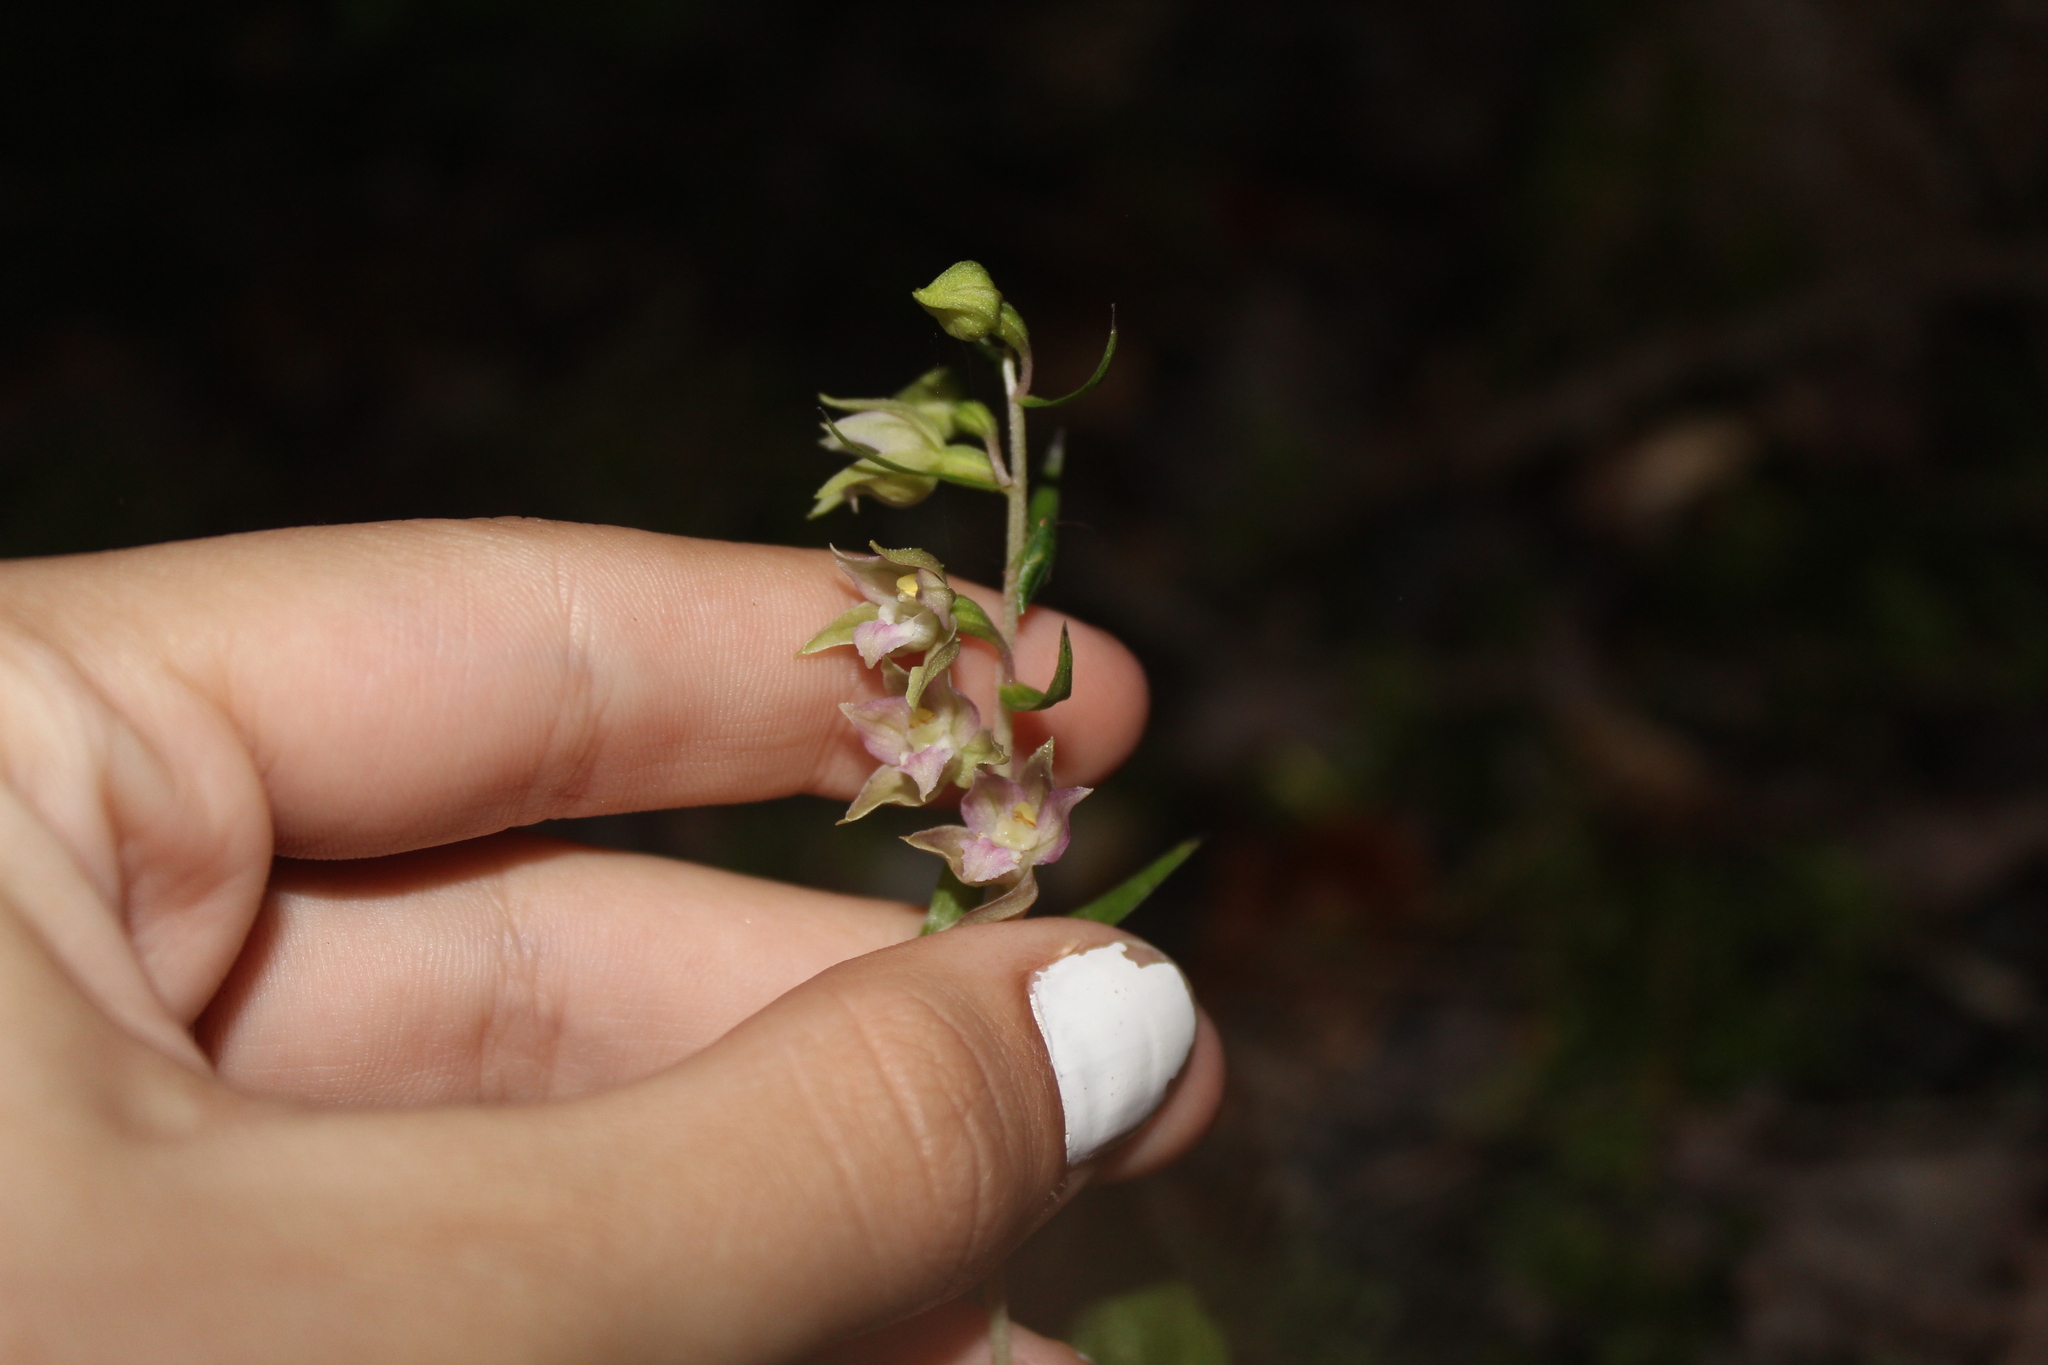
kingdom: Plantae
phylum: Tracheophyta
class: Liliopsida
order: Asparagales
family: Orchidaceae
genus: Epipactis
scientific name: Epipactis helleborine
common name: Broad-leaved helleborine
